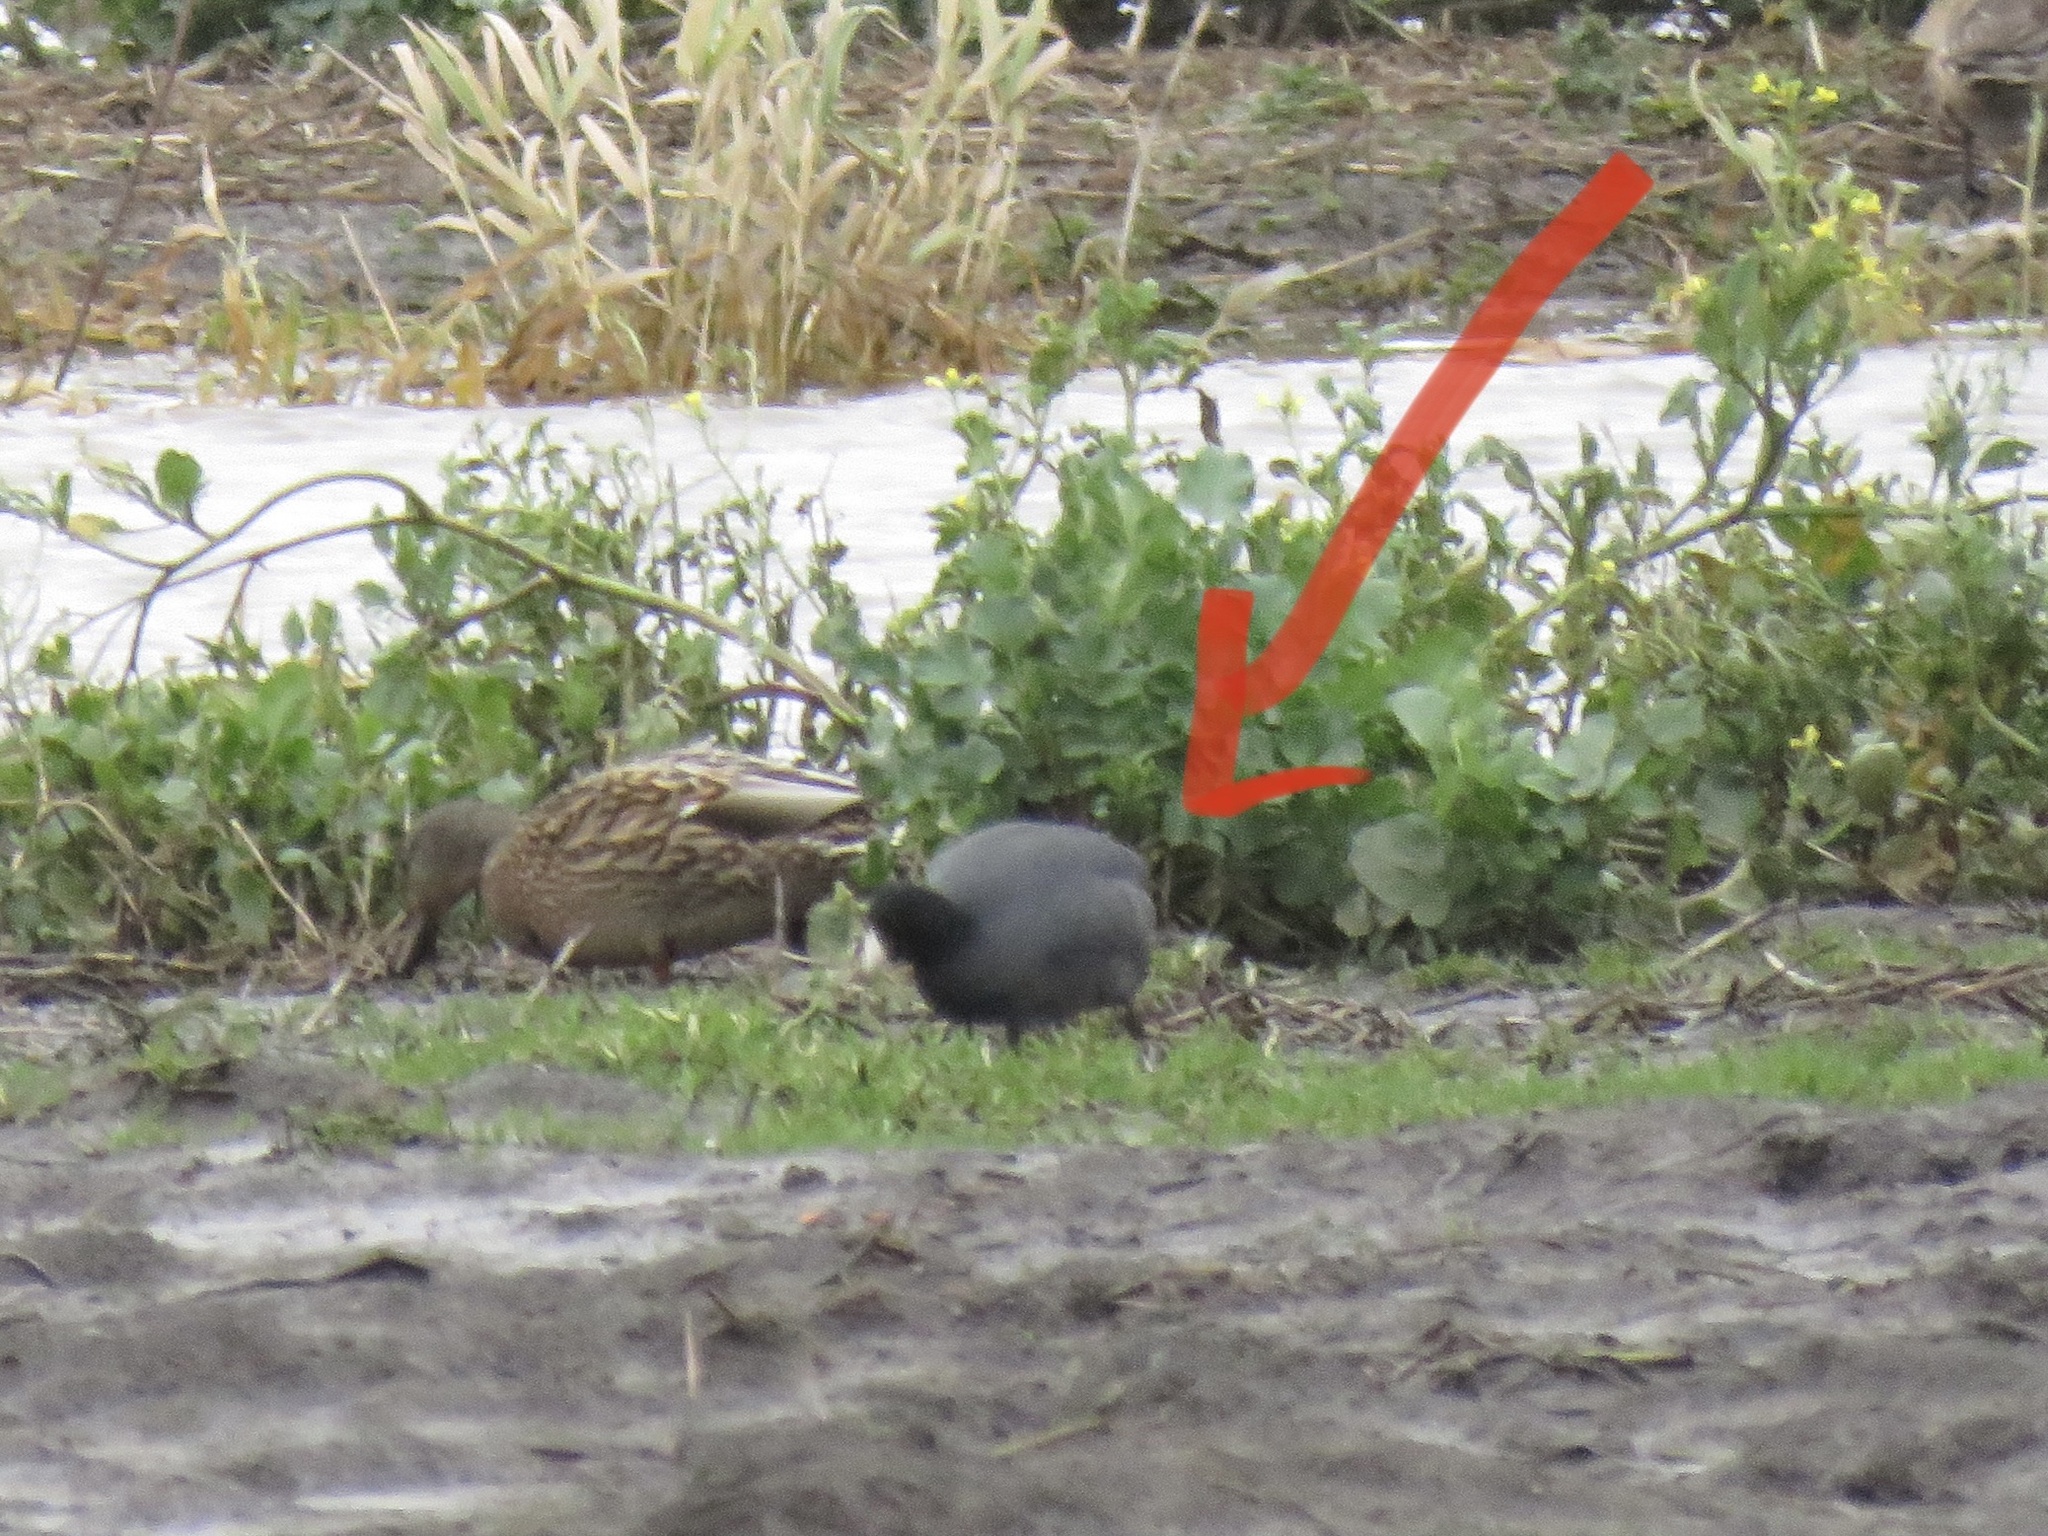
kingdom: Animalia
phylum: Chordata
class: Aves
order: Gruiformes
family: Rallidae
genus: Fulica
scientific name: Fulica americana
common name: American coot
